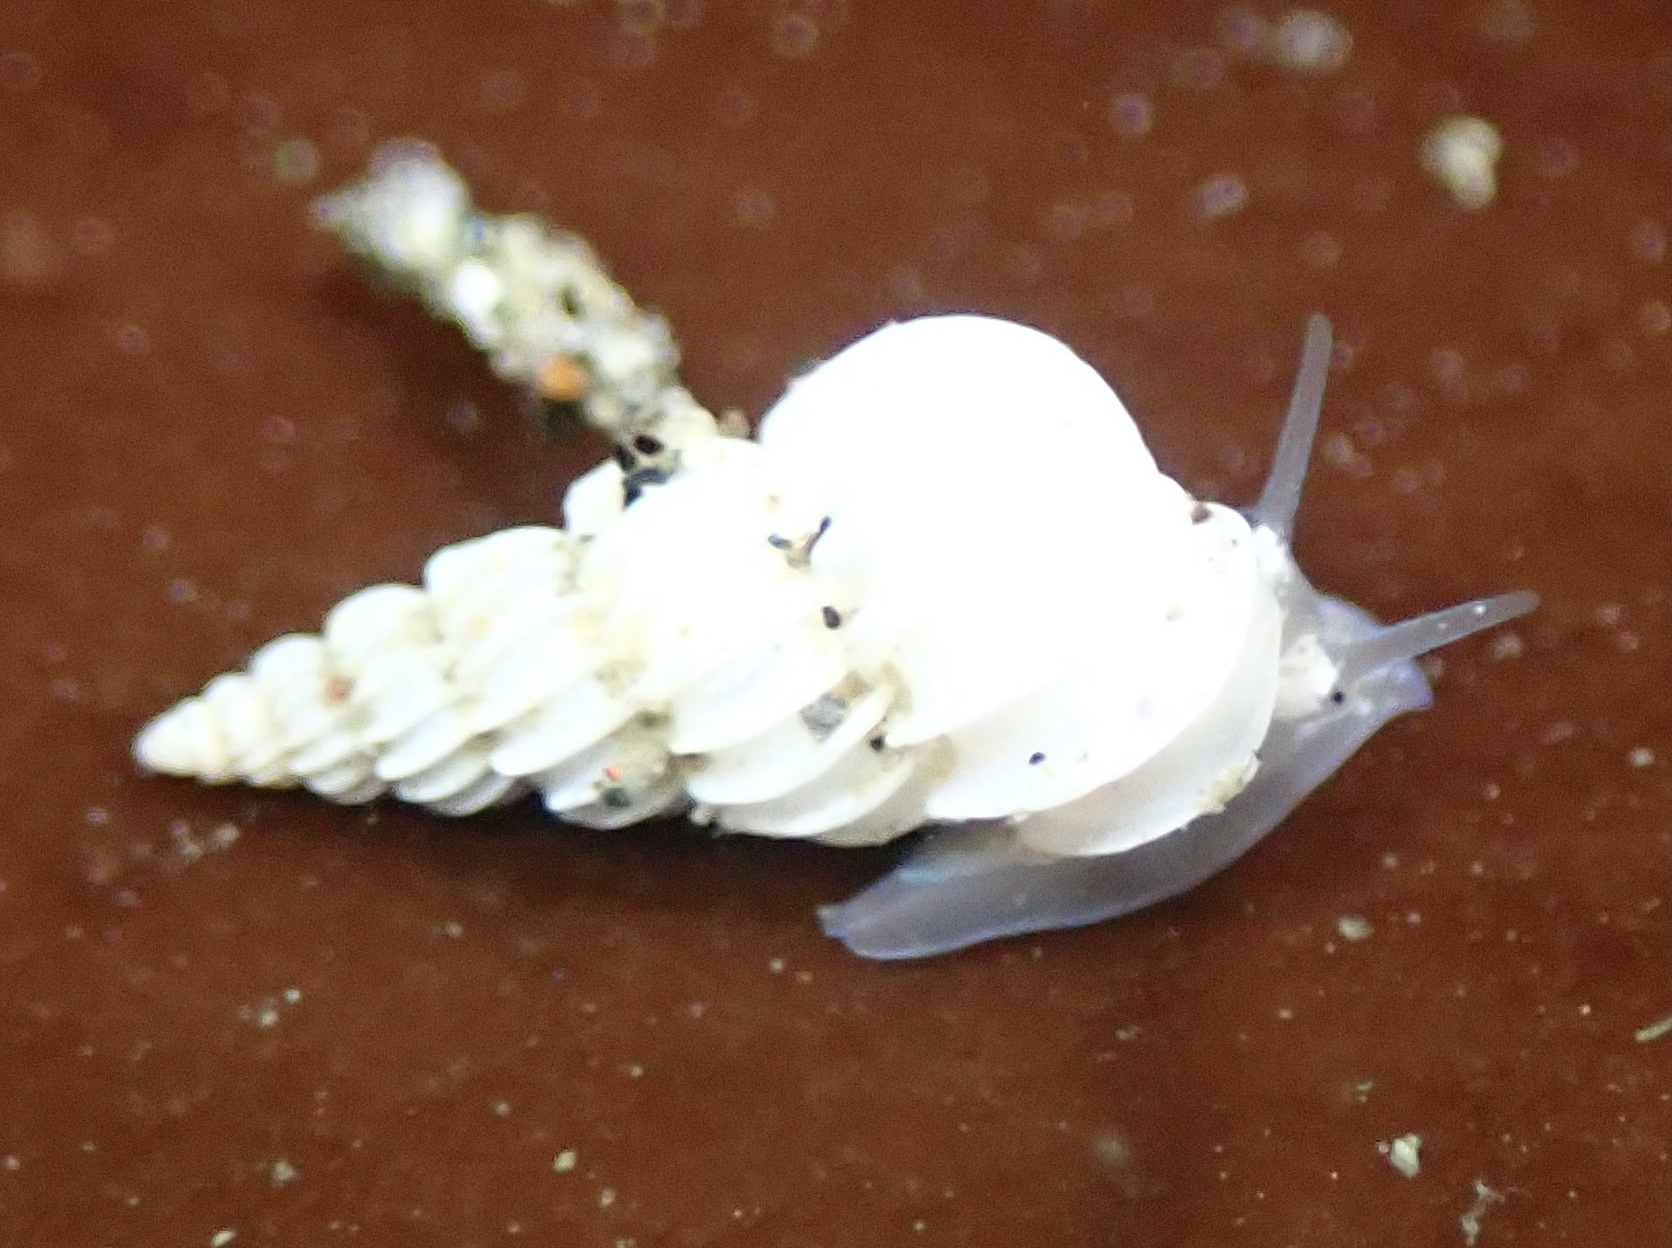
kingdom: Animalia
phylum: Mollusca
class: Gastropoda
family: Epitoniidae
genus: Epitonium
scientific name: Epitonium tinctum
